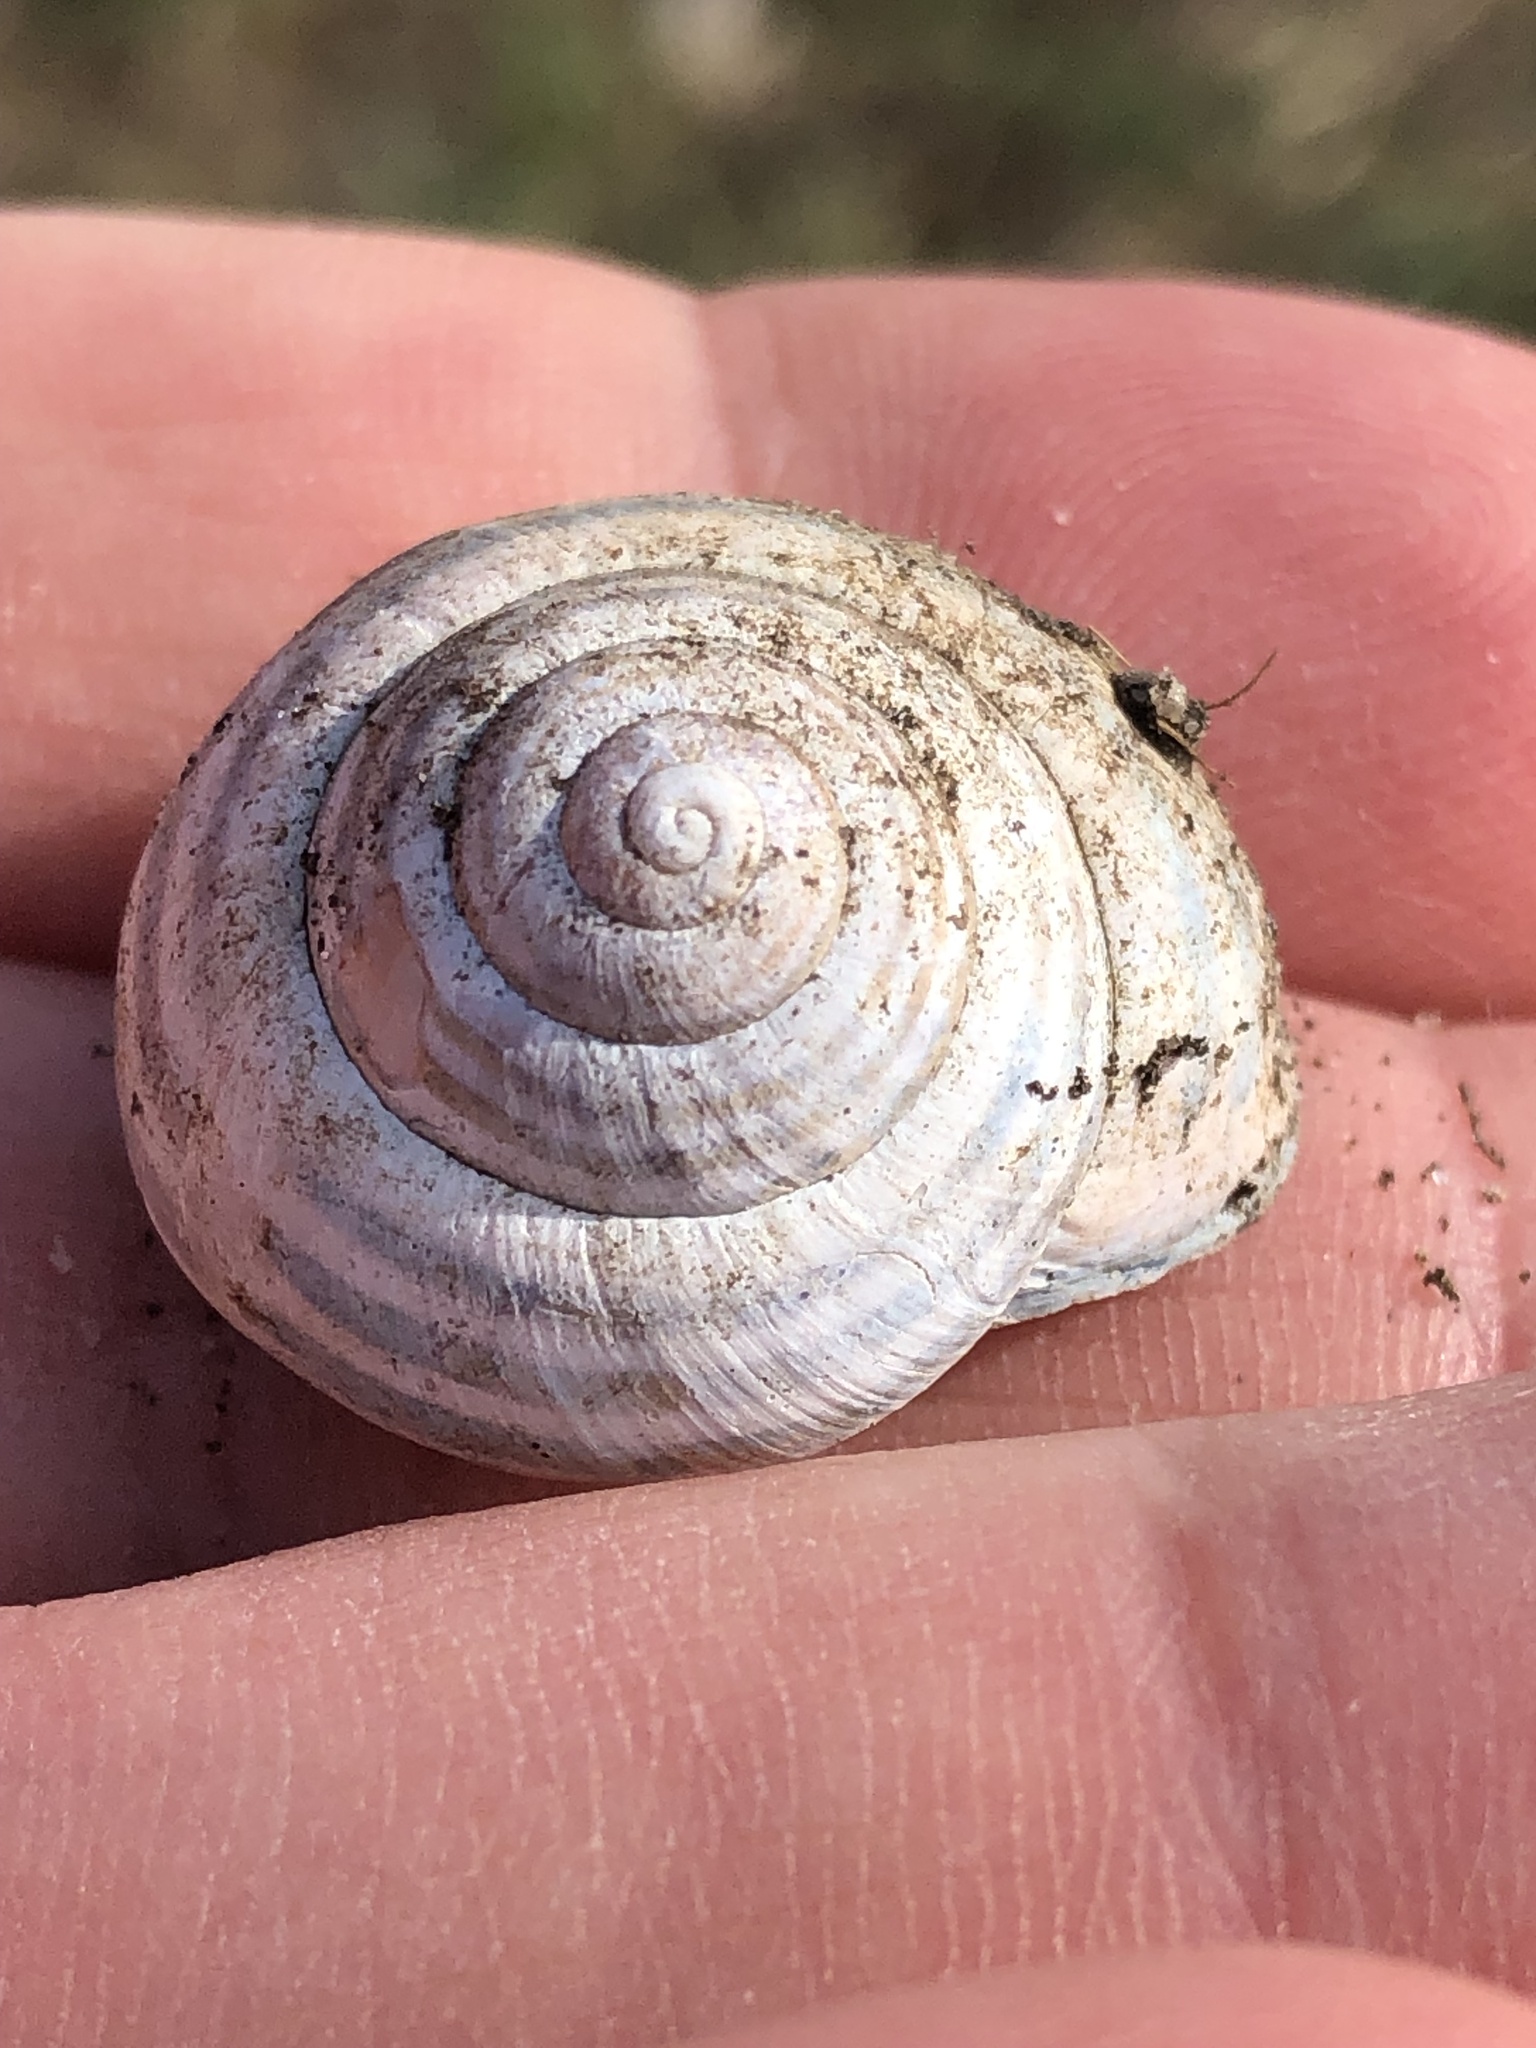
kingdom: Animalia
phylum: Mollusca
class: Gastropoda
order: Stylommatophora
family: Helicidae
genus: Cepaea
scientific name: Cepaea nemoralis
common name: Grovesnail
